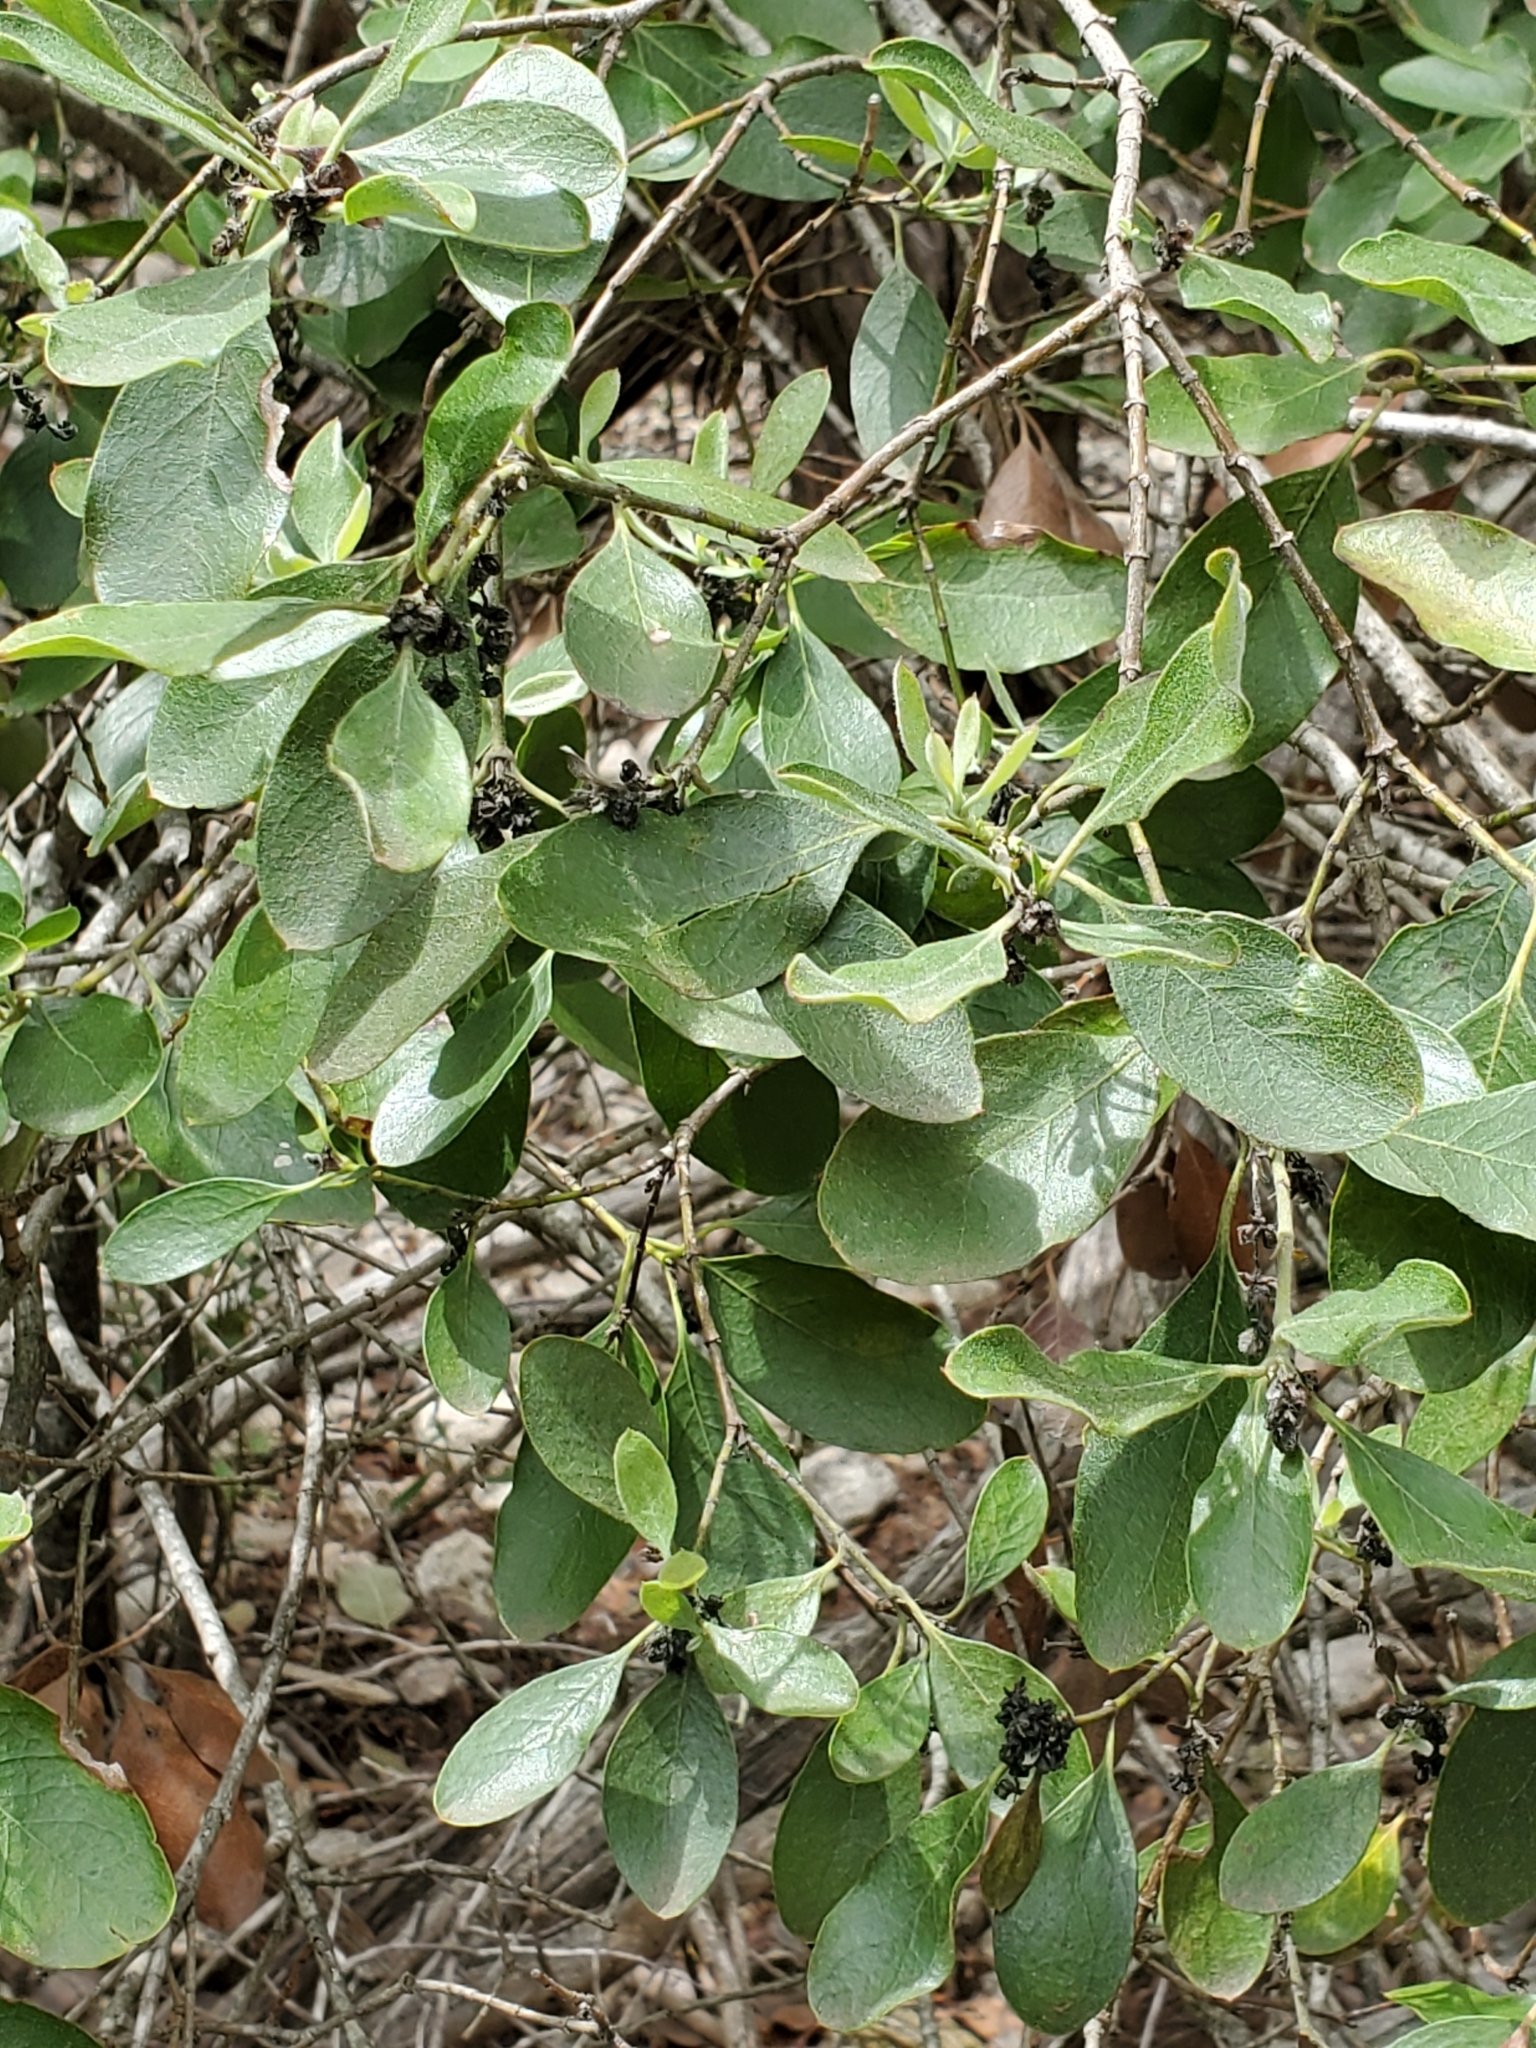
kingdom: Plantae
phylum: Tracheophyta
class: Magnoliopsida
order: Garryales
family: Garryaceae
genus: Garrya
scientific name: Garrya lindheimeri
